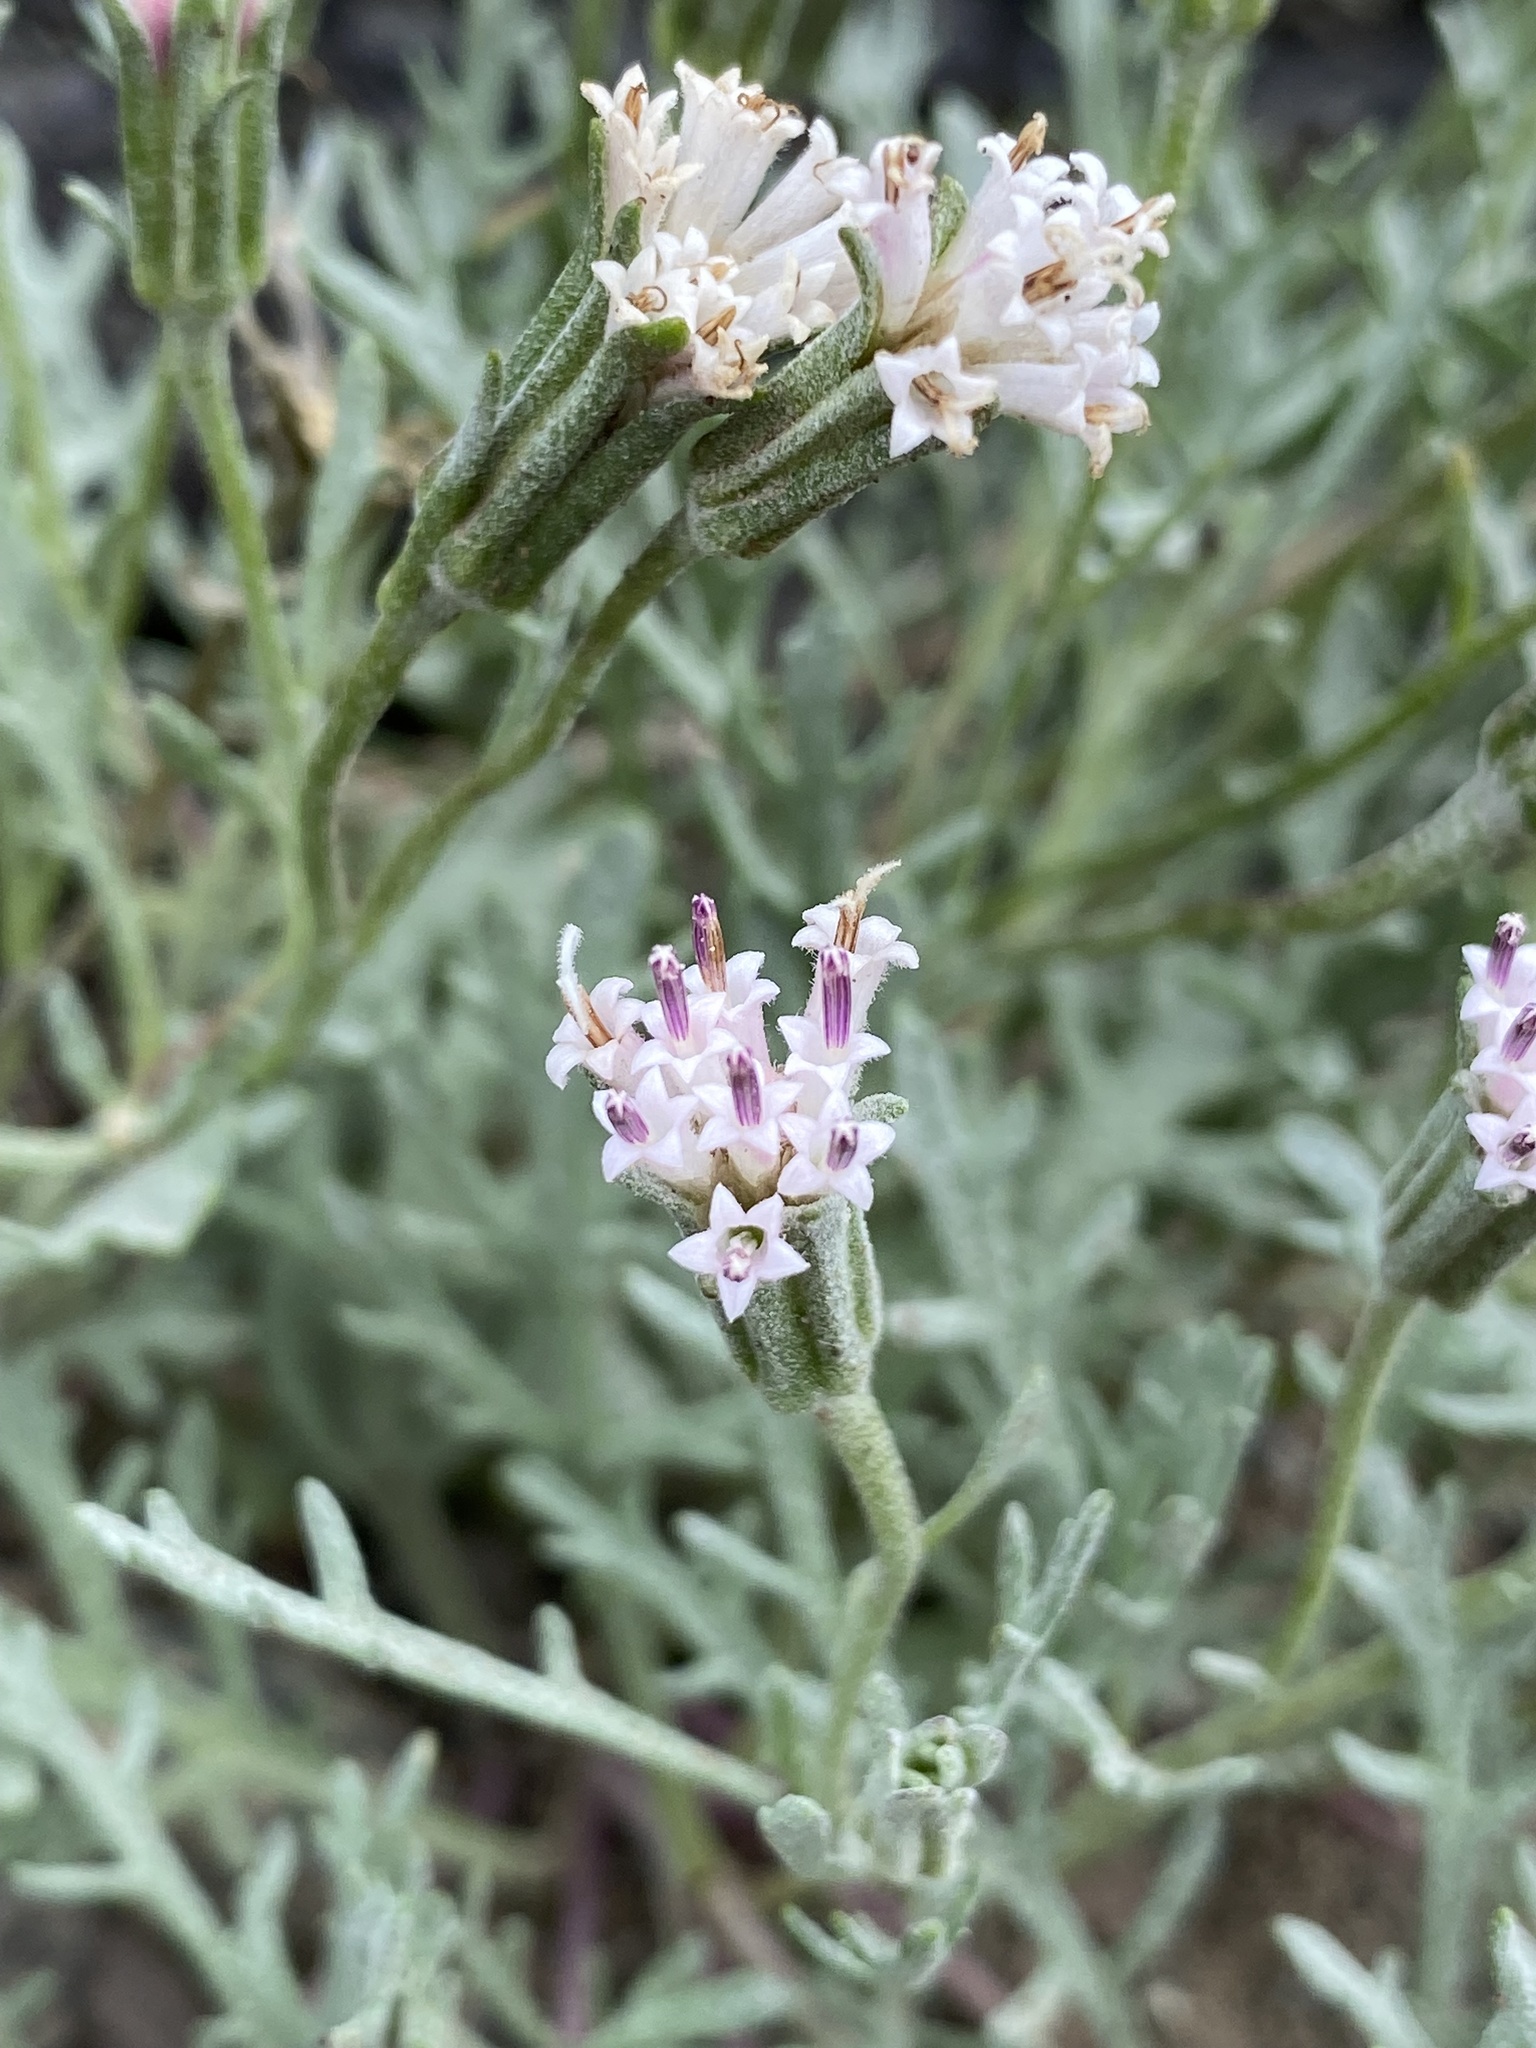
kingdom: Plantae
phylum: Tracheophyta
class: Magnoliopsida
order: Asterales
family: Asteraceae
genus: Chaenactis
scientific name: Chaenactis thompsonii
